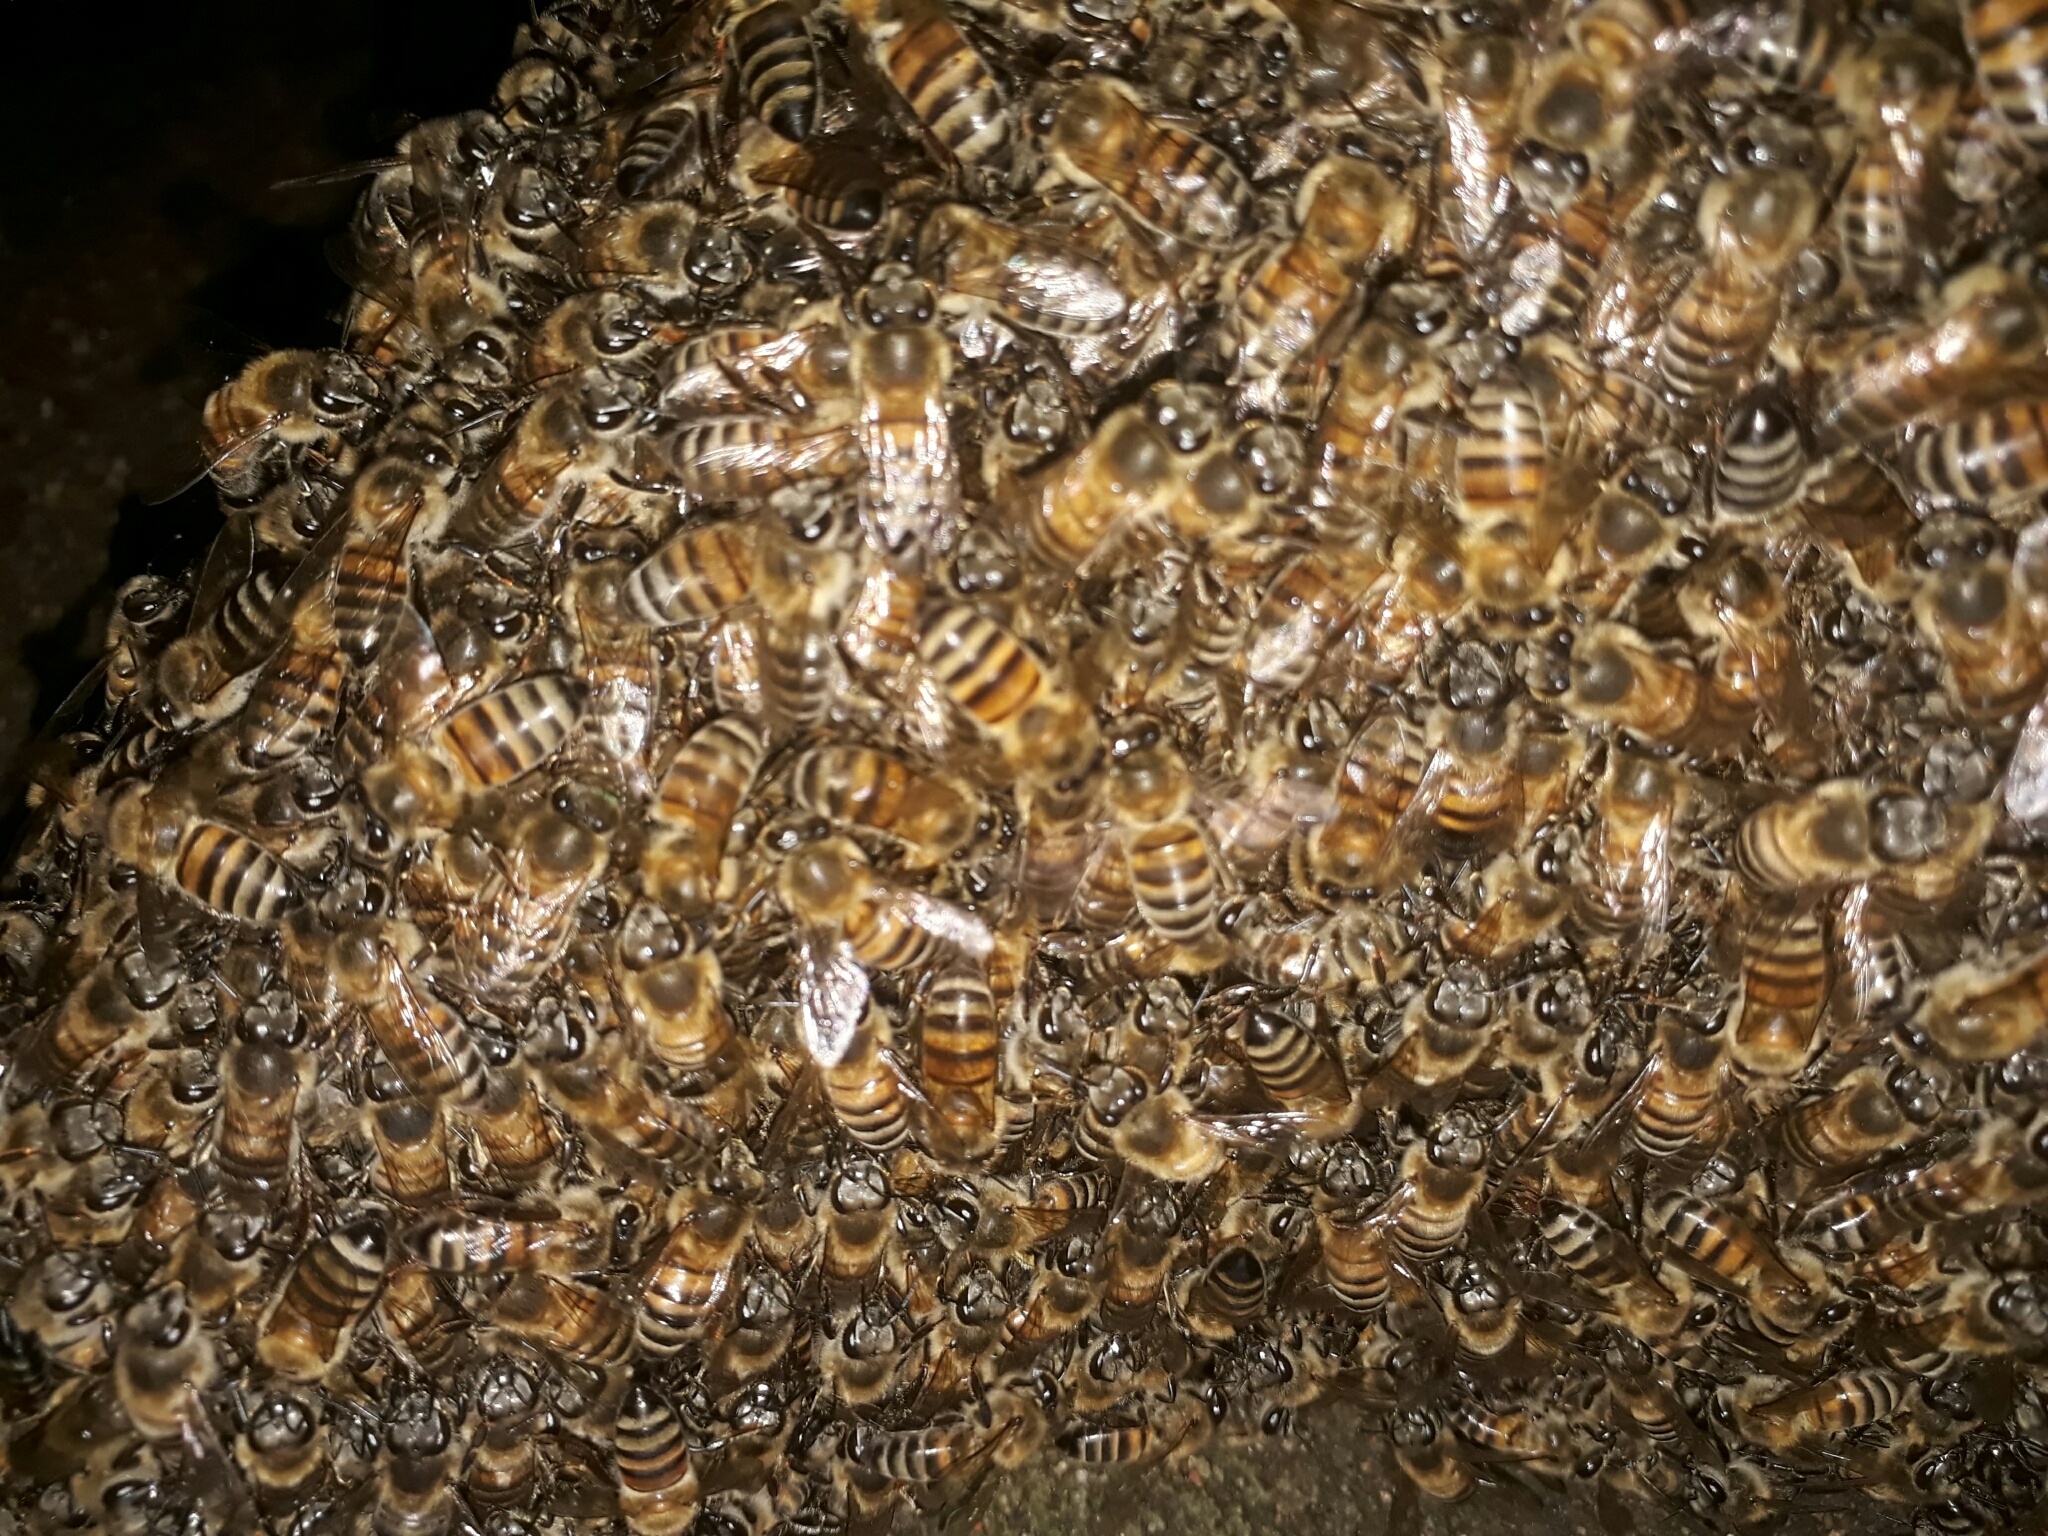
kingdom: Animalia
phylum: Arthropoda
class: Insecta
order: Hymenoptera
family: Apidae
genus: Apis
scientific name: Apis mellifera
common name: Honey bee
